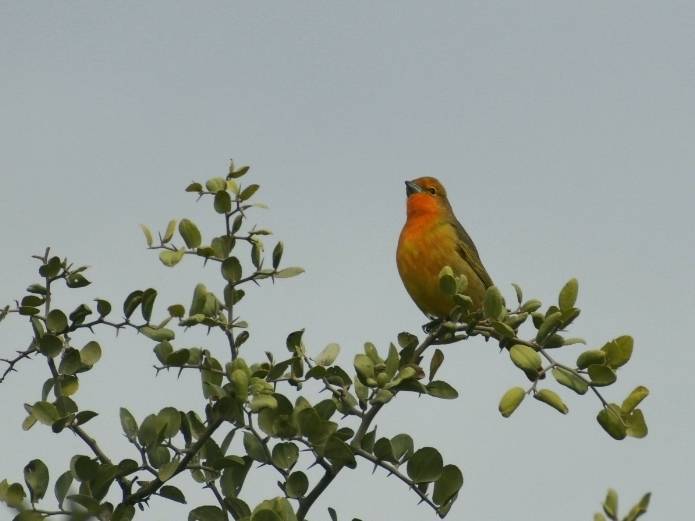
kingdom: Animalia
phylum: Chordata
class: Aves
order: Passeriformes
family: Cardinalidae
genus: Piranga
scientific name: Piranga flava
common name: Red tanager
